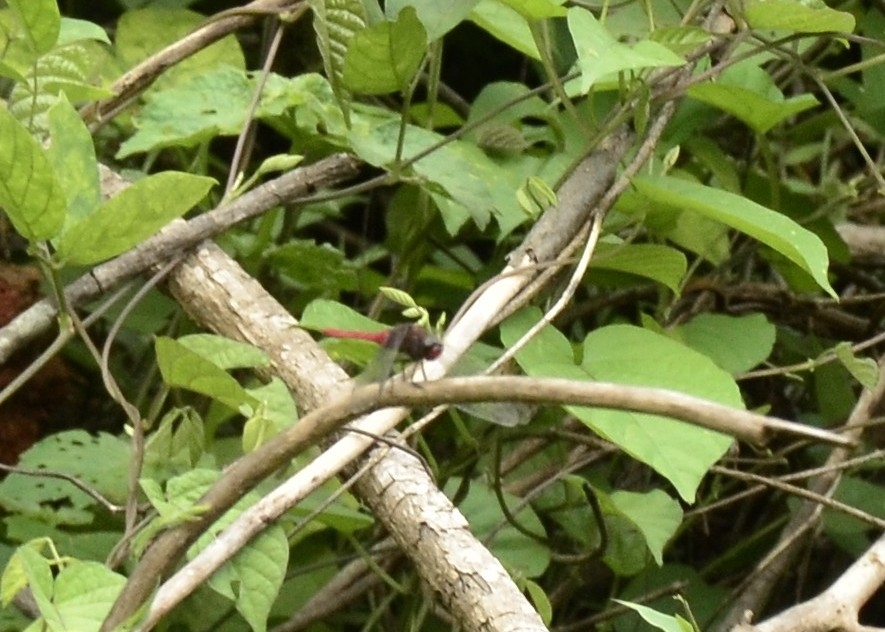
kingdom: Animalia
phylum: Arthropoda
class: Insecta
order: Odonata
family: Libellulidae
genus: Orthetrum
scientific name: Orthetrum chrysis
